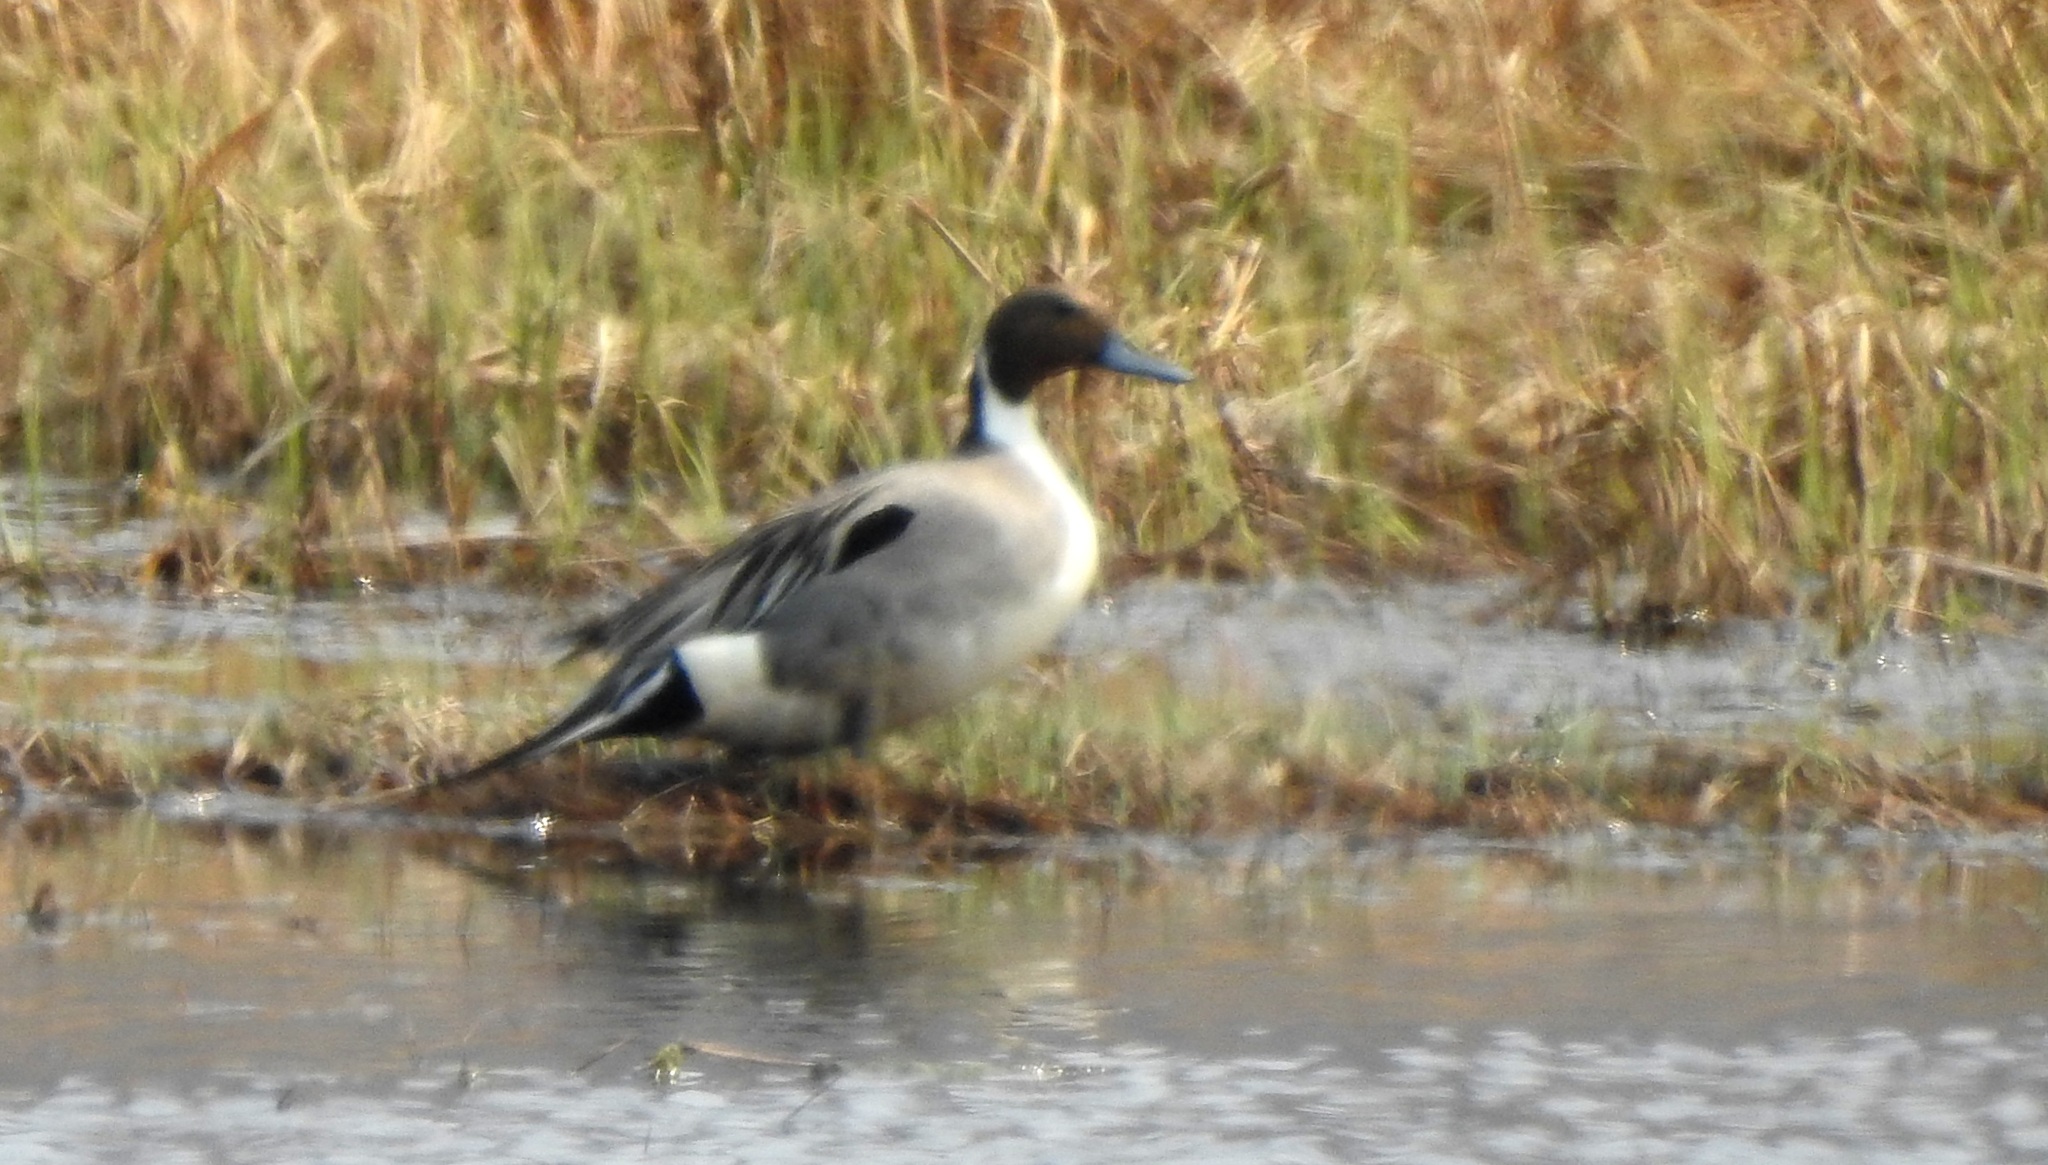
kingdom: Animalia
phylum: Chordata
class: Aves
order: Anseriformes
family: Anatidae
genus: Anas
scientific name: Anas acuta
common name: Northern pintail
